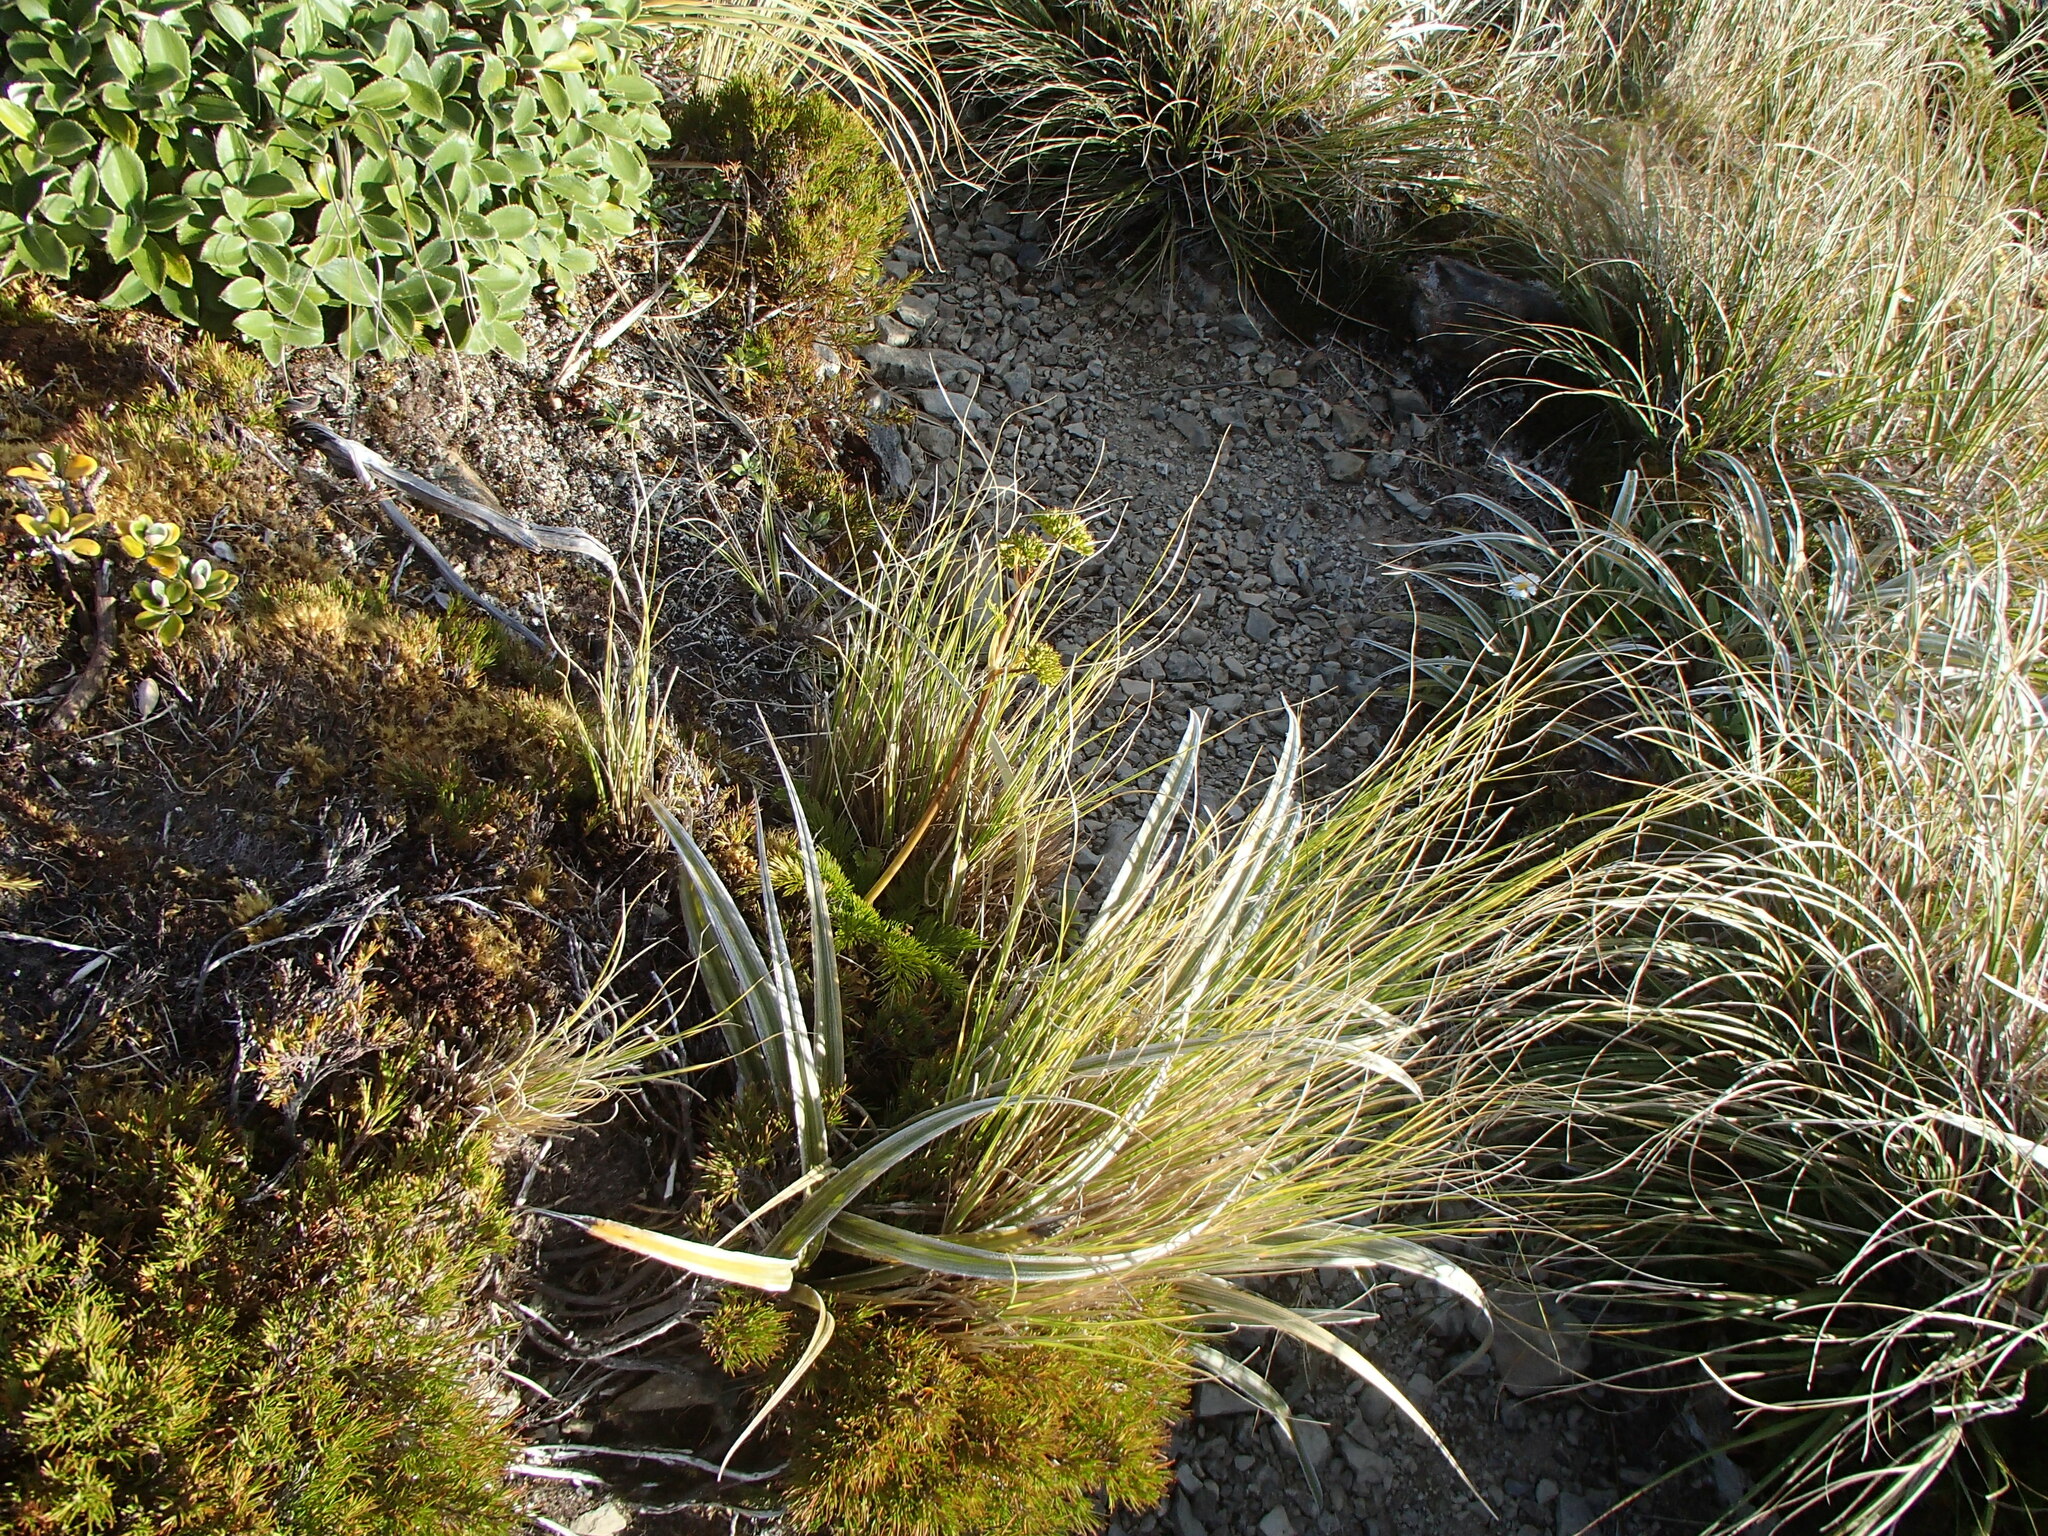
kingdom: Plantae
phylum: Tracheophyta
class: Magnoliopsida
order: Apiales
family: Apiaceae
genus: Aciphylla
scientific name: Aciphylla dissecta
